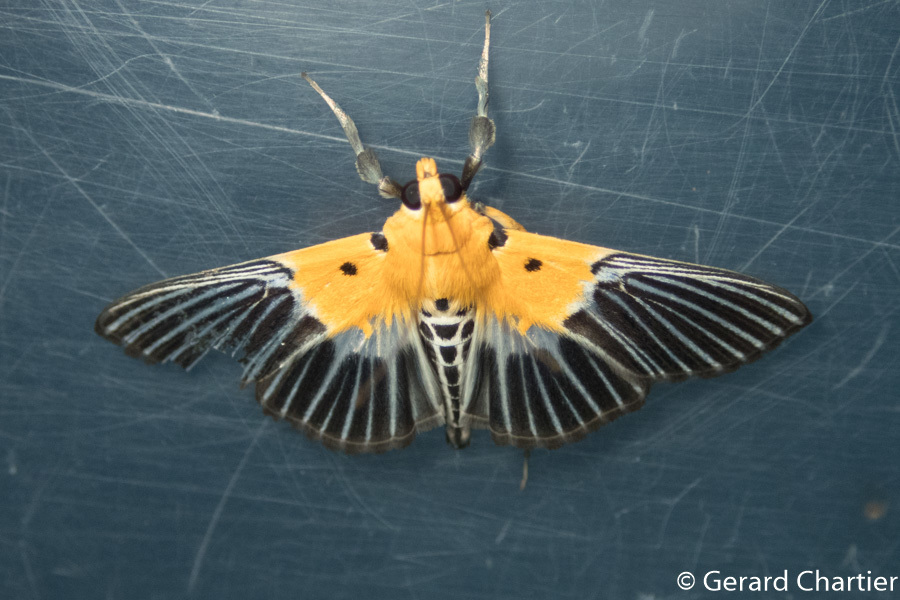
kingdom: Animalia
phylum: Arthropoda
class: Insecta
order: Lepidoptera
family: Crambidae
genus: Nevrina
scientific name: Nevrina procopia
